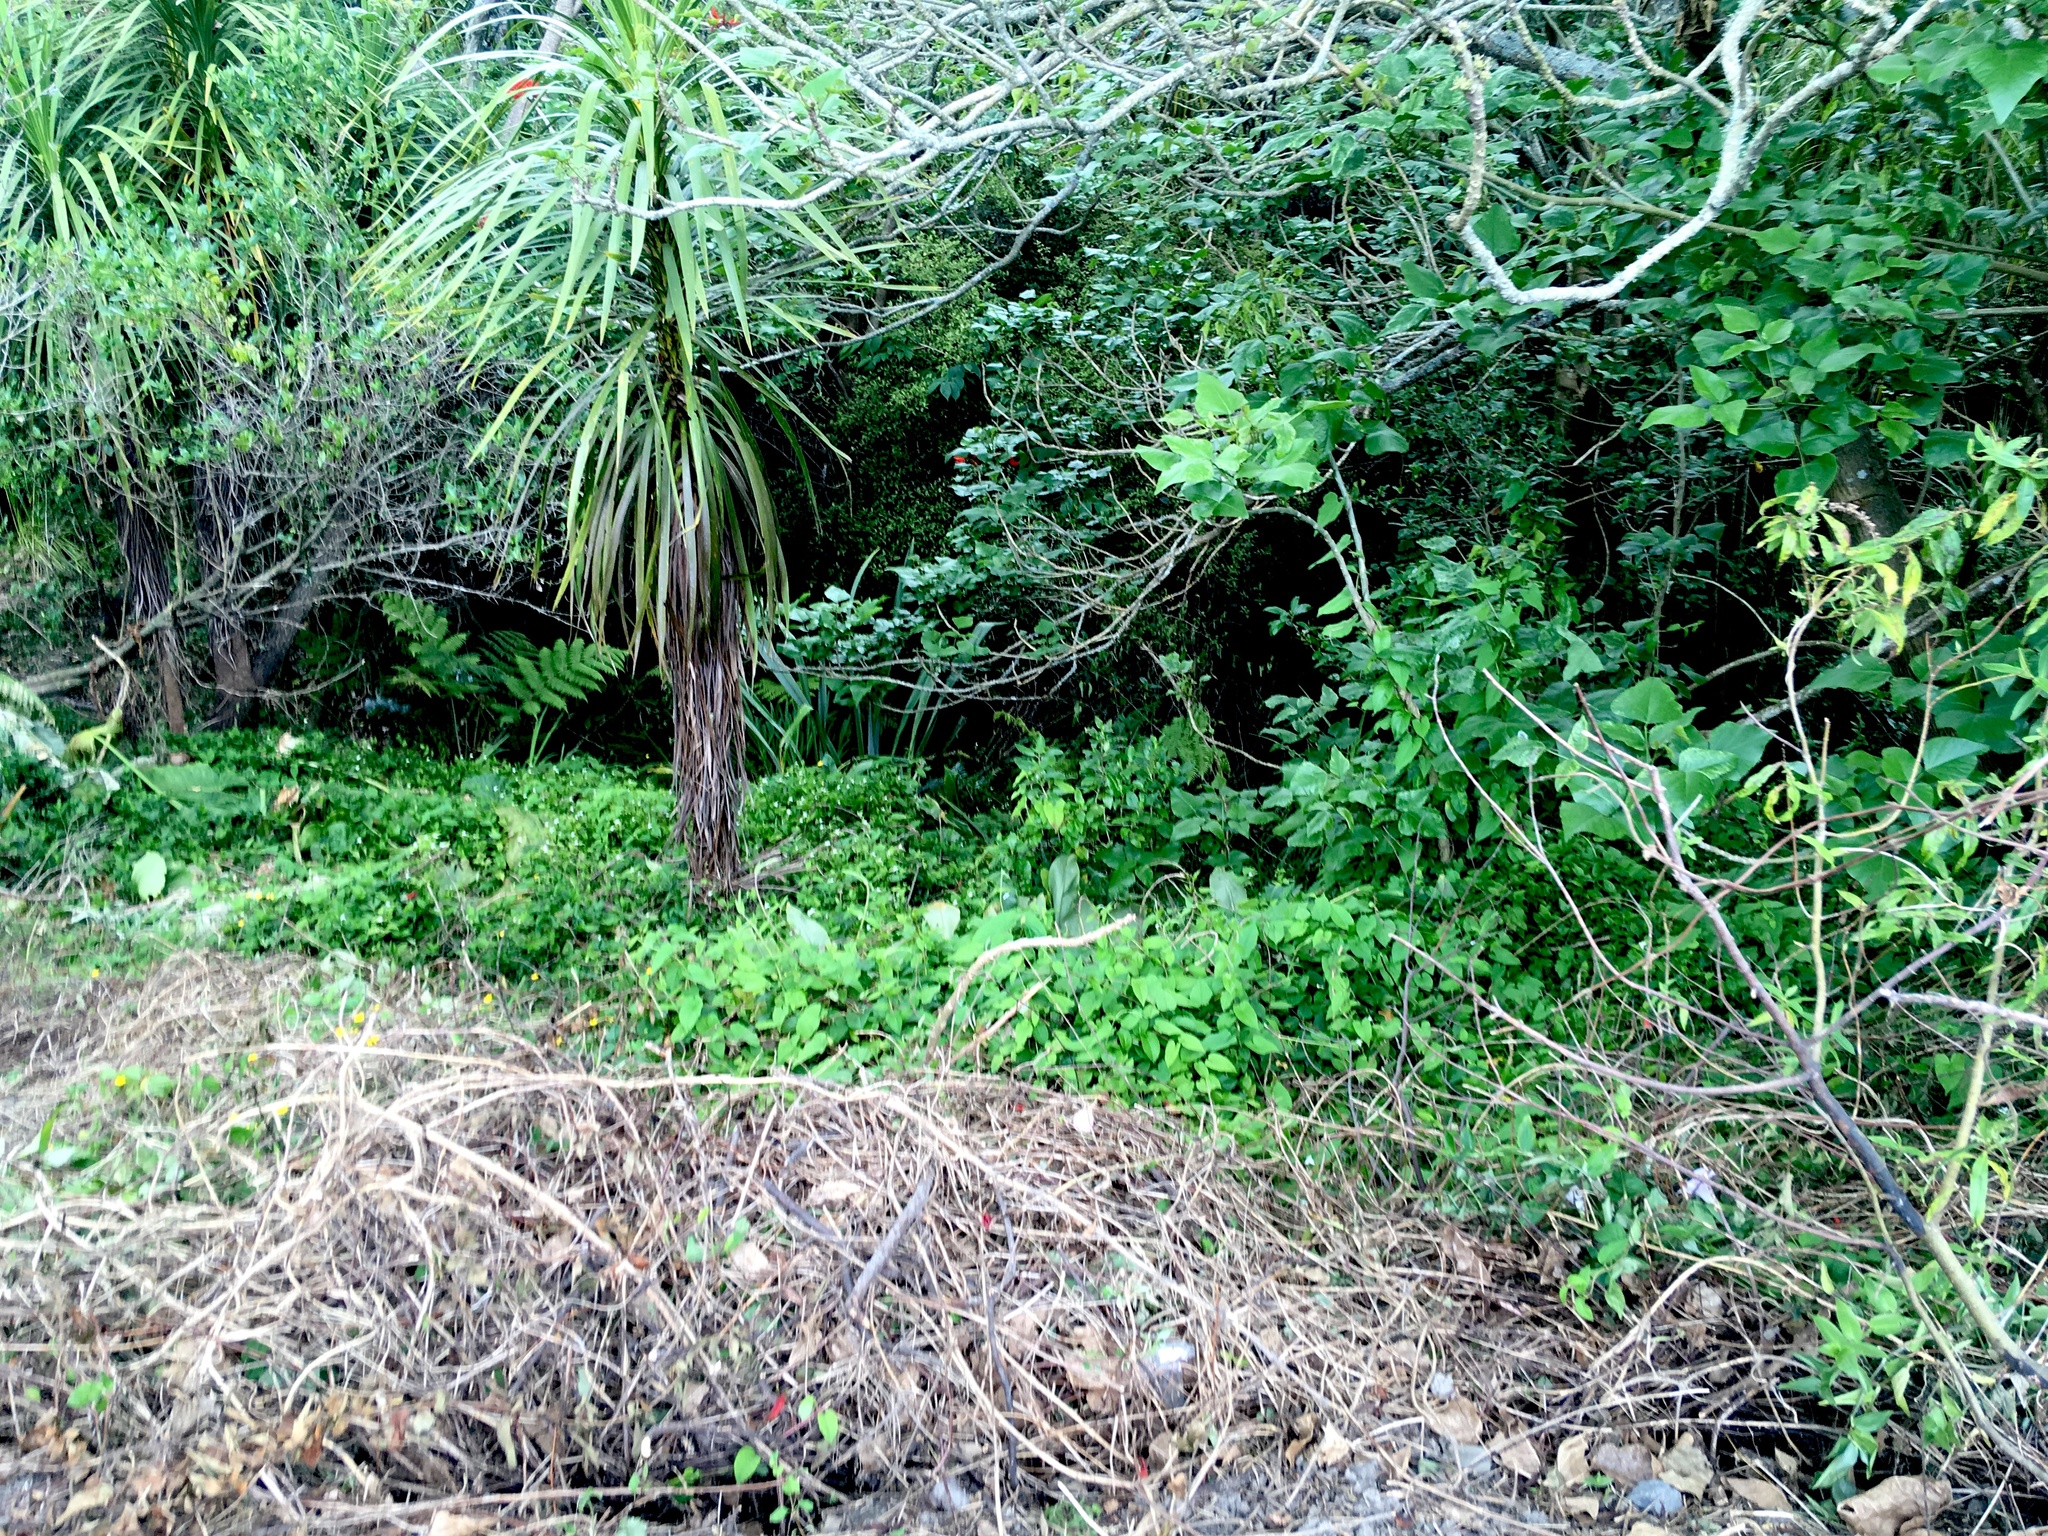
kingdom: Plantae
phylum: Tracheophyta
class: Magnoliopsida
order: Dipsacales
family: Caprifoliaceae
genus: Lonicera
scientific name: Lonicera japonica
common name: Japanese honeysuckle
